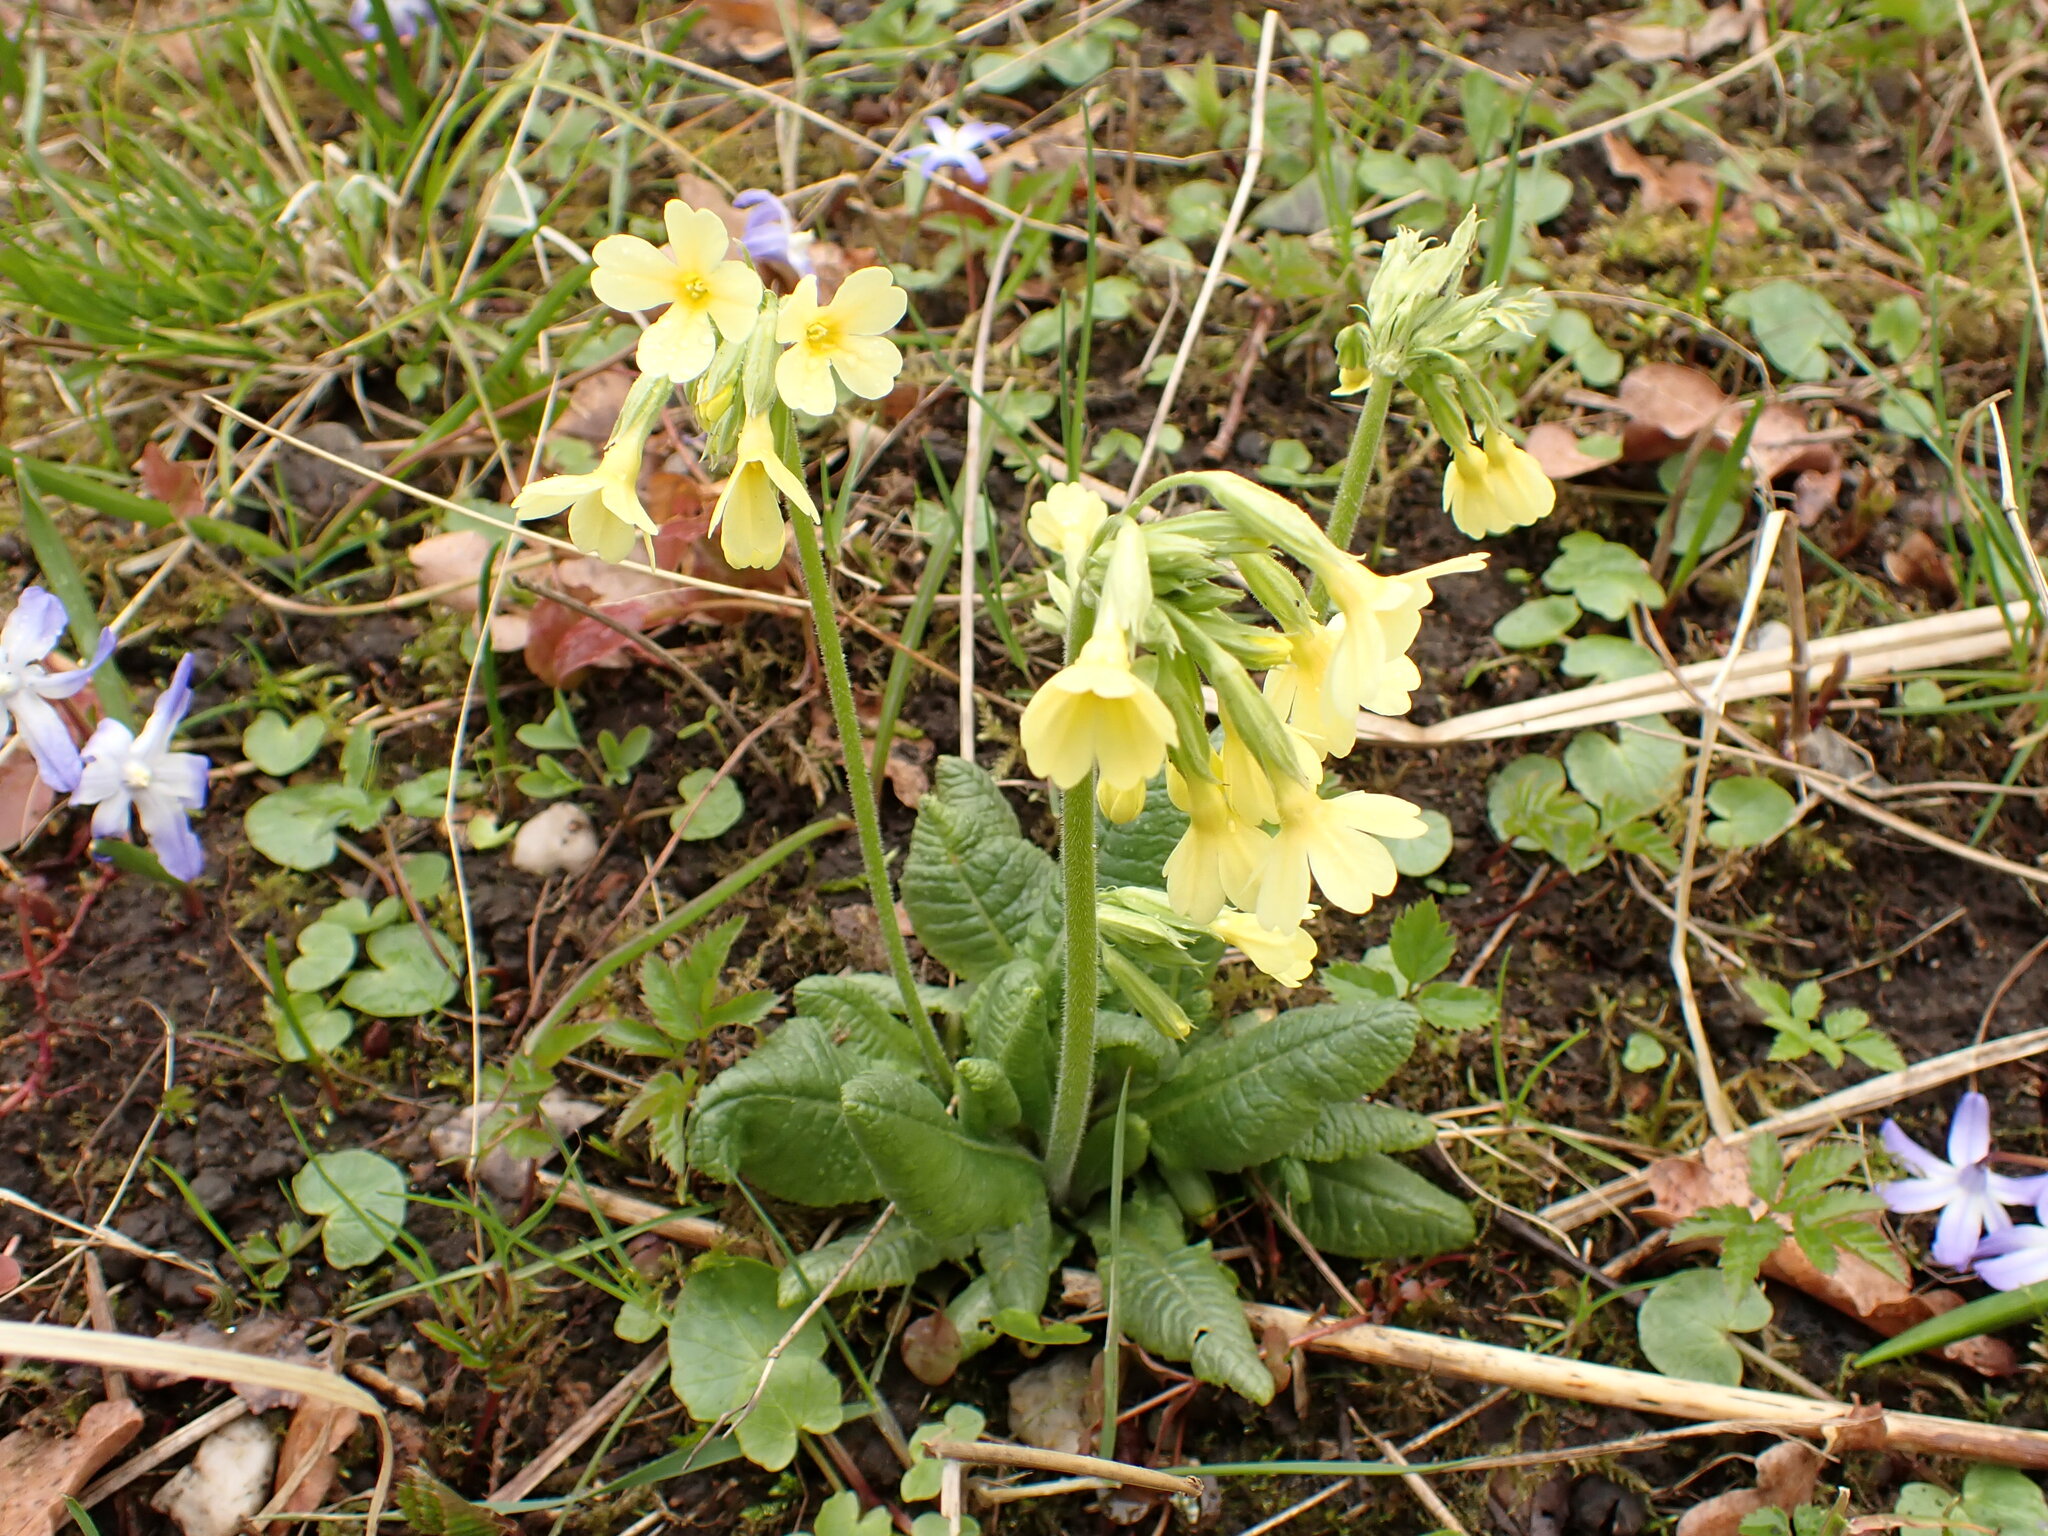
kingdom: Plantae
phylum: Tracheophyta
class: Magnoliopsida
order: Ericales
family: Primulaceae
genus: Primula
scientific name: Primula elatior
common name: Oxlip
